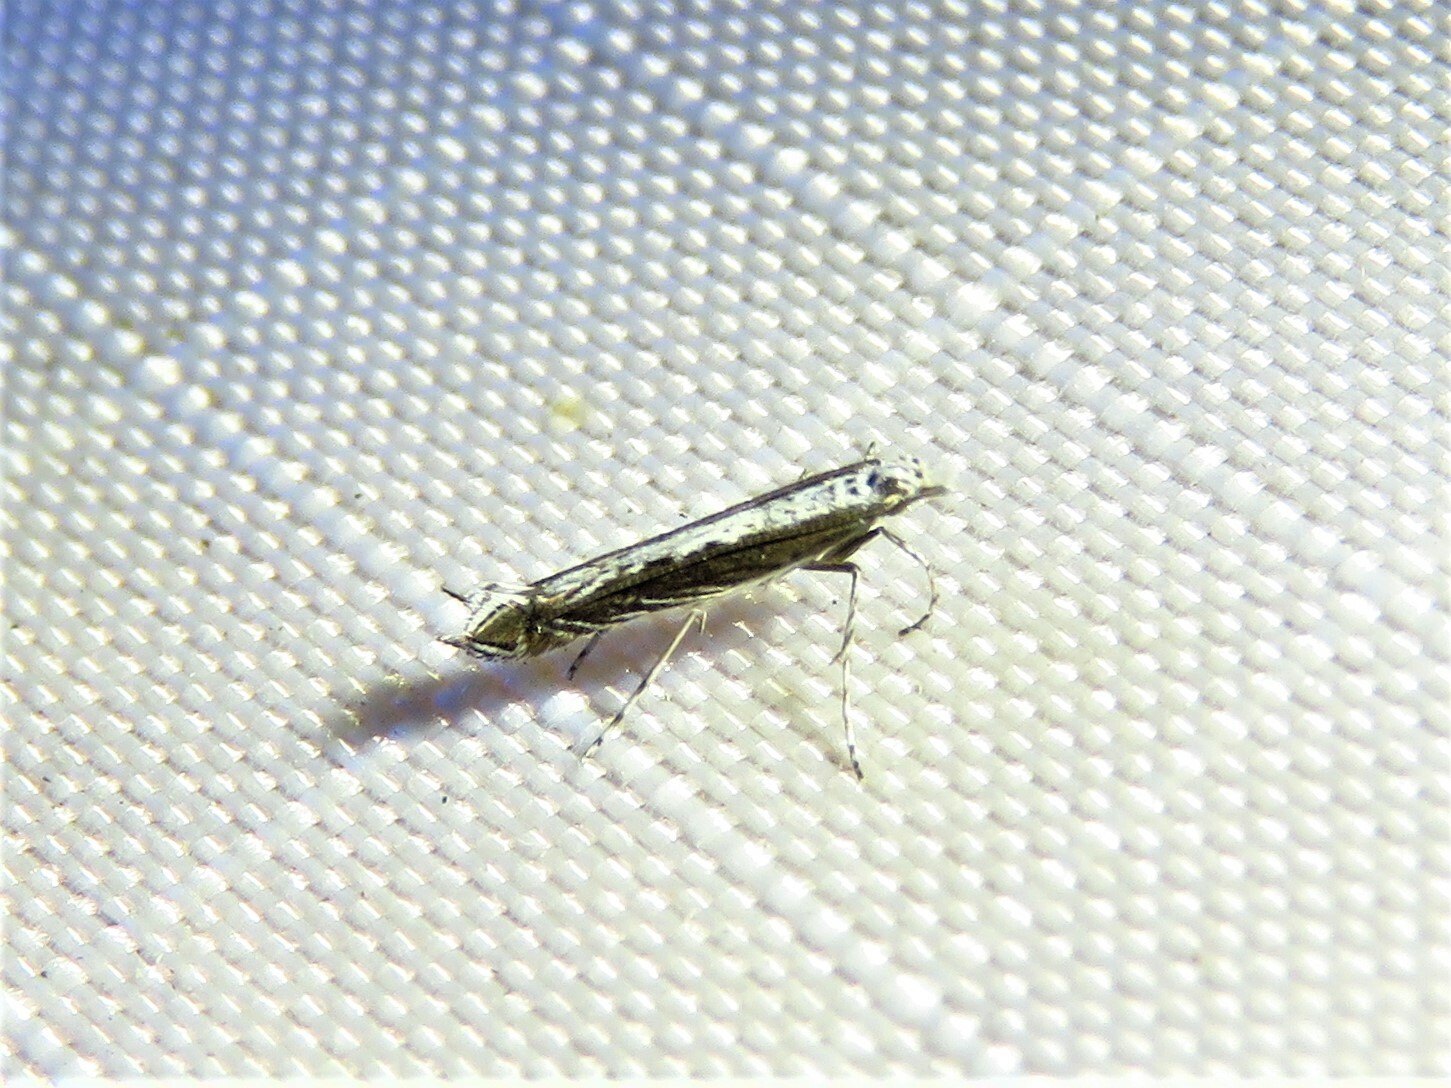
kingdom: Plantae
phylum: Rhodophyta
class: Florideophyceae
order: Gracilariales
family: Gracilariaceae
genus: Gracilaria
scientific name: Gracilaria
